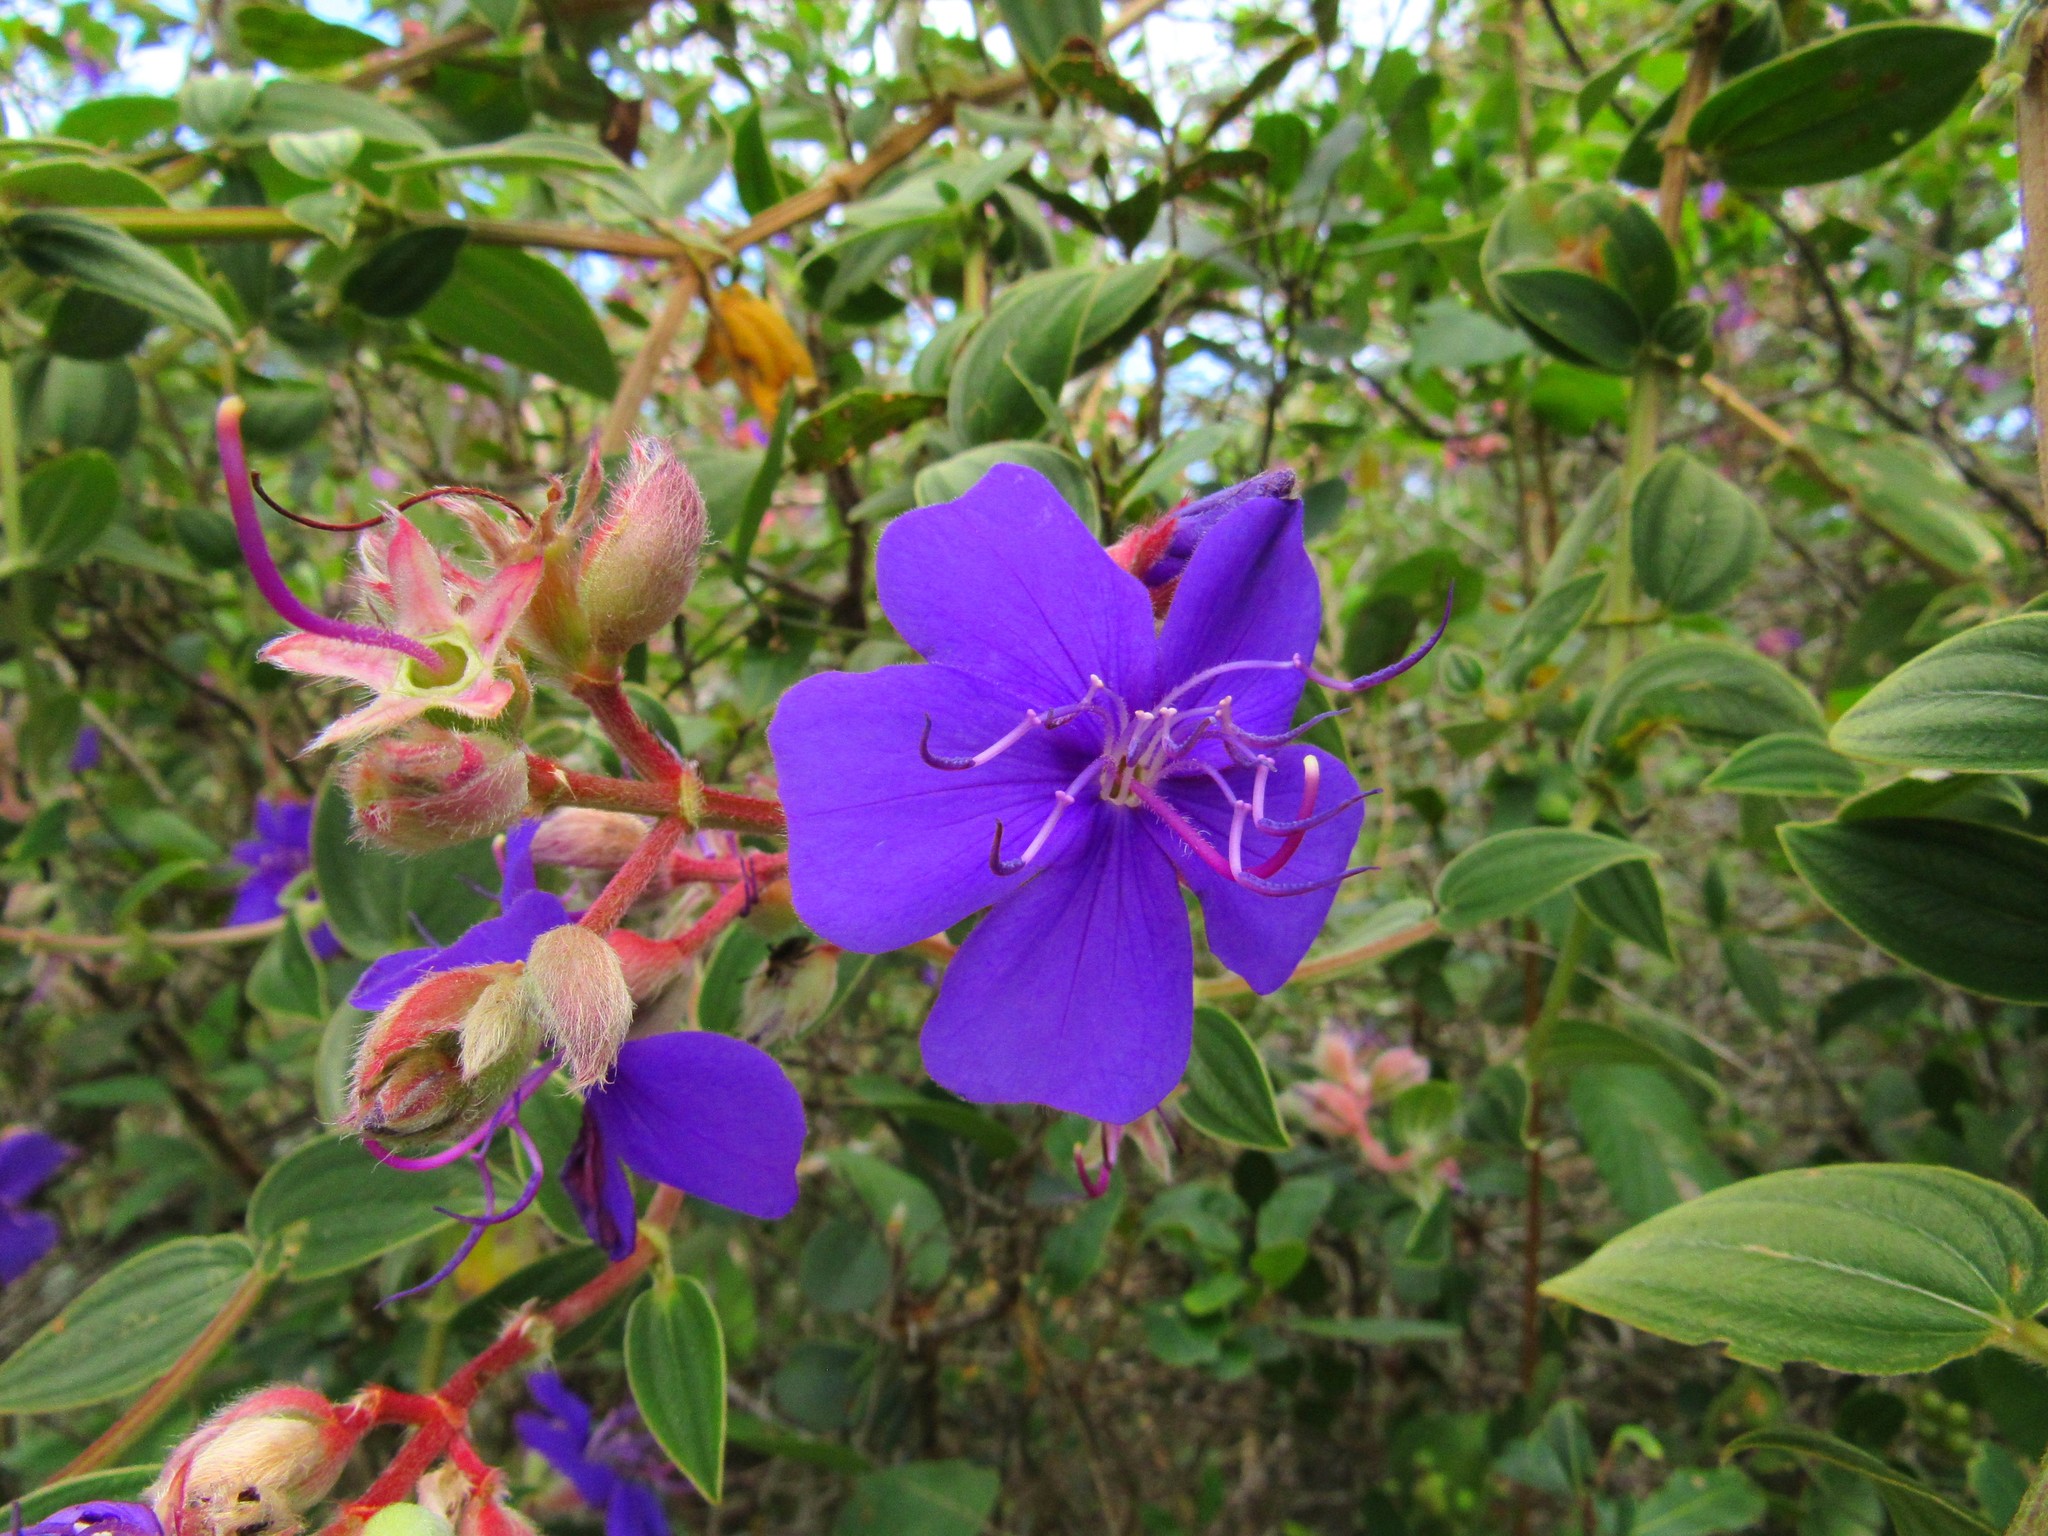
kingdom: Plantae
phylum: Tracheophyta
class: Magnoliopsida
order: Myrtales
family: Melastomataceae
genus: Pleroma
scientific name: Pleroma urvilleanum
